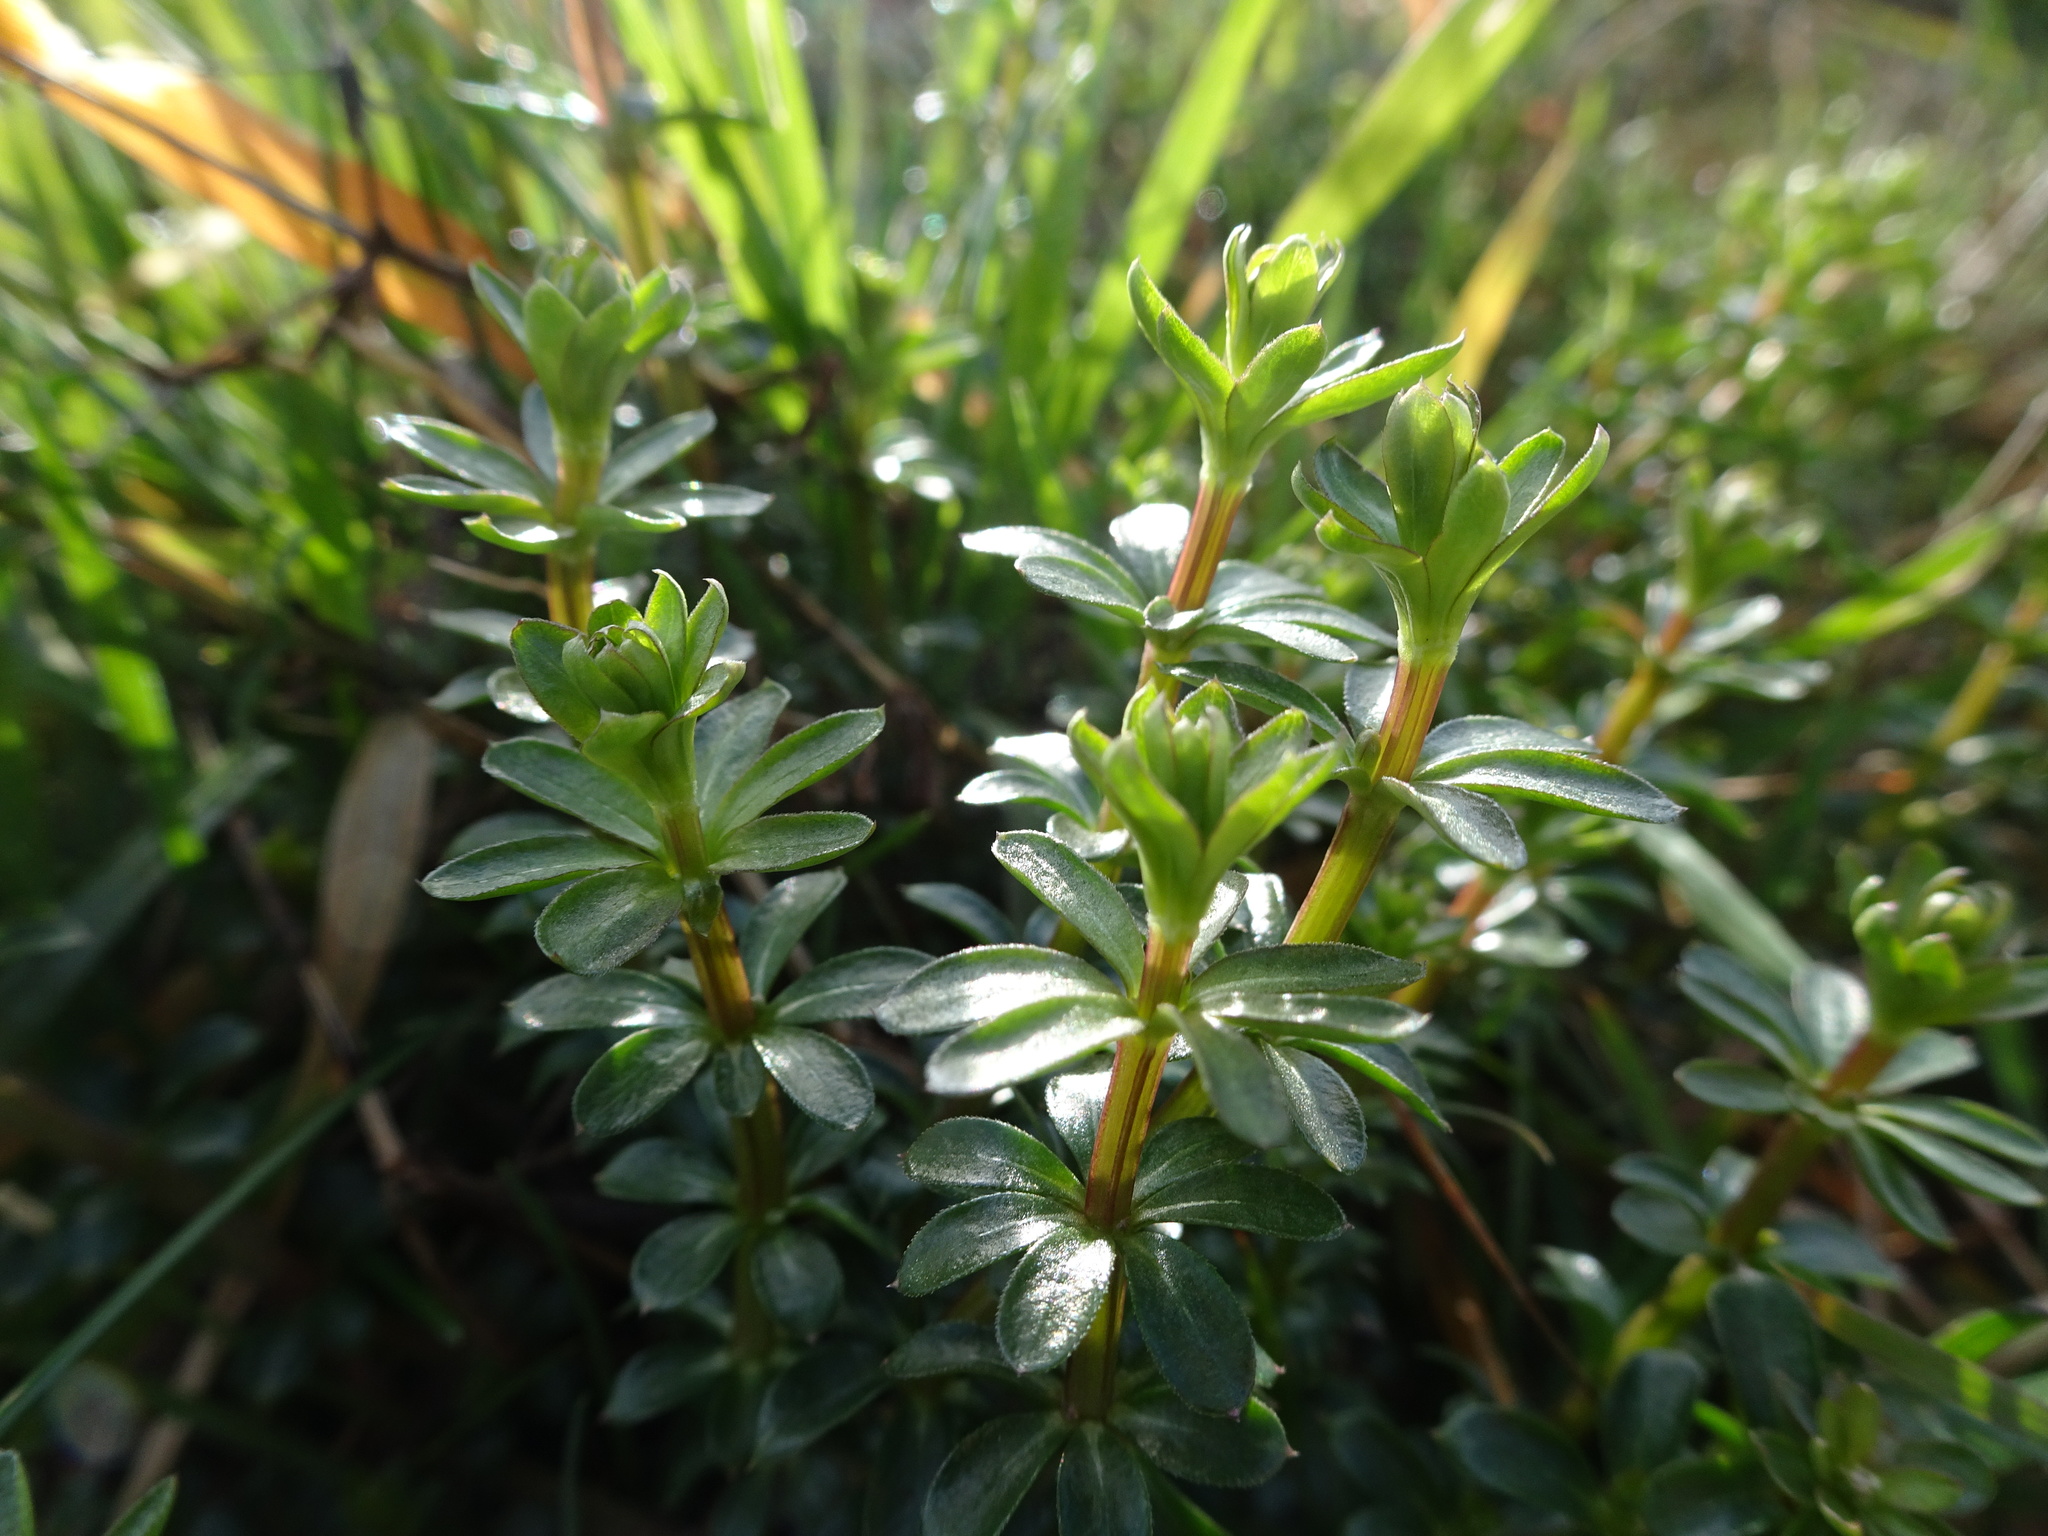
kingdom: Plantae
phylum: Tracheophyta
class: Magnoliopsida
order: Gentianales
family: Rubiaceae
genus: Galium
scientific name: Galium album
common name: White bedstraw
